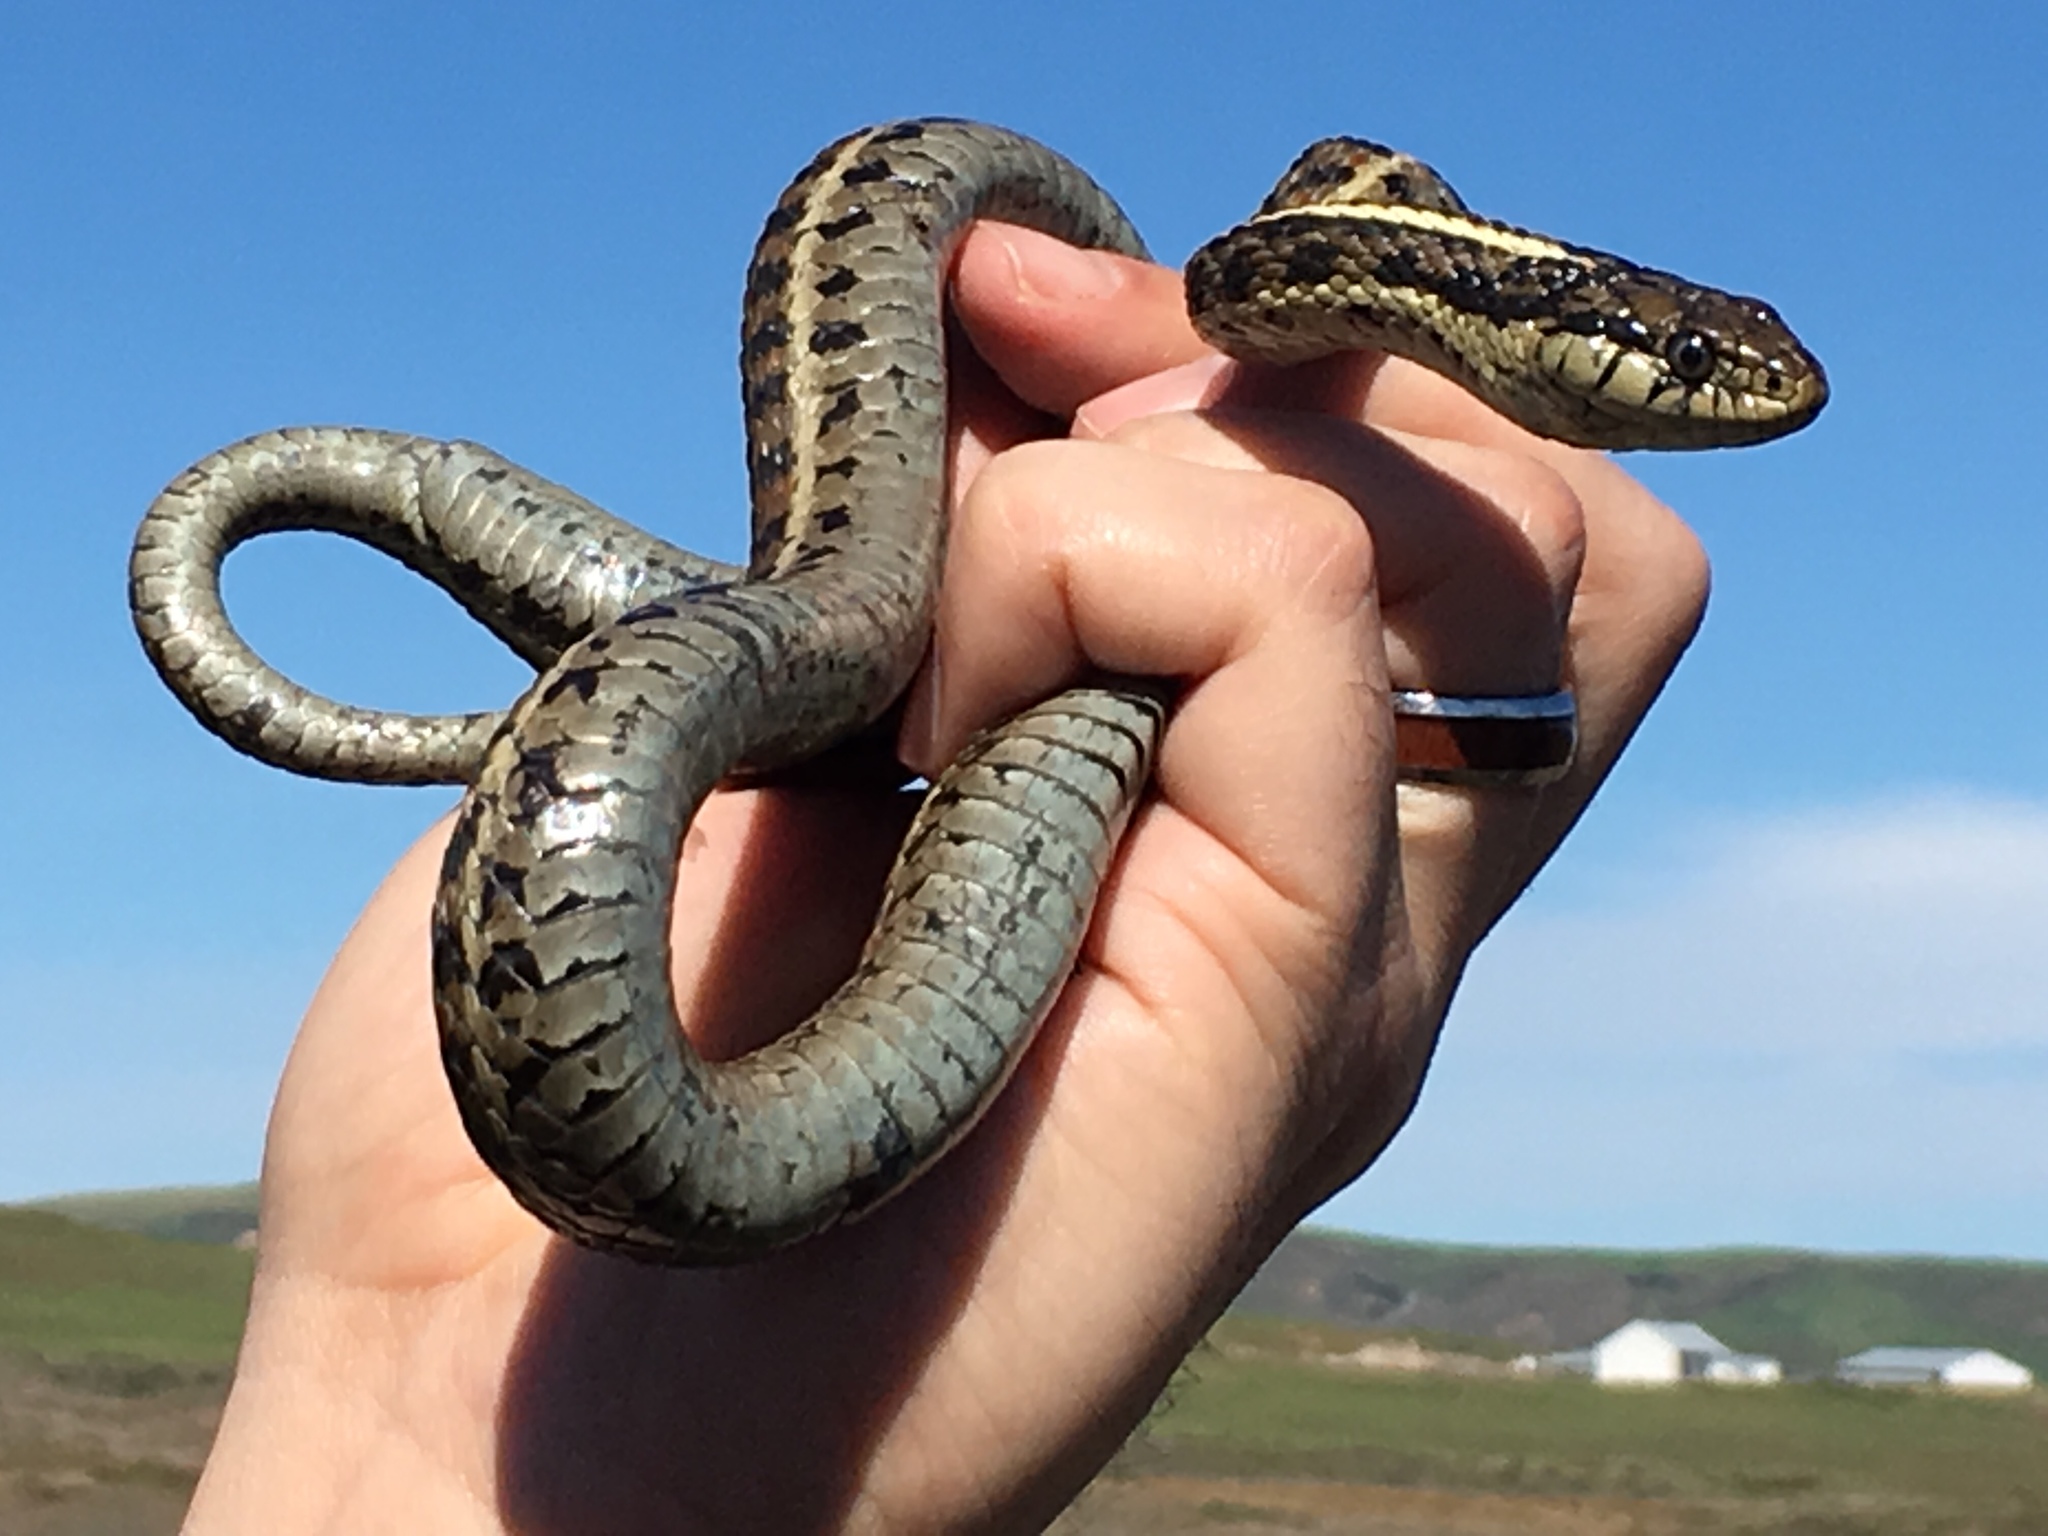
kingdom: Animalia
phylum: Chordata
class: Squamata
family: Colubridae
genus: Thamnophis
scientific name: Thamnophis elegans
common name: Western terrestrial garter snake
